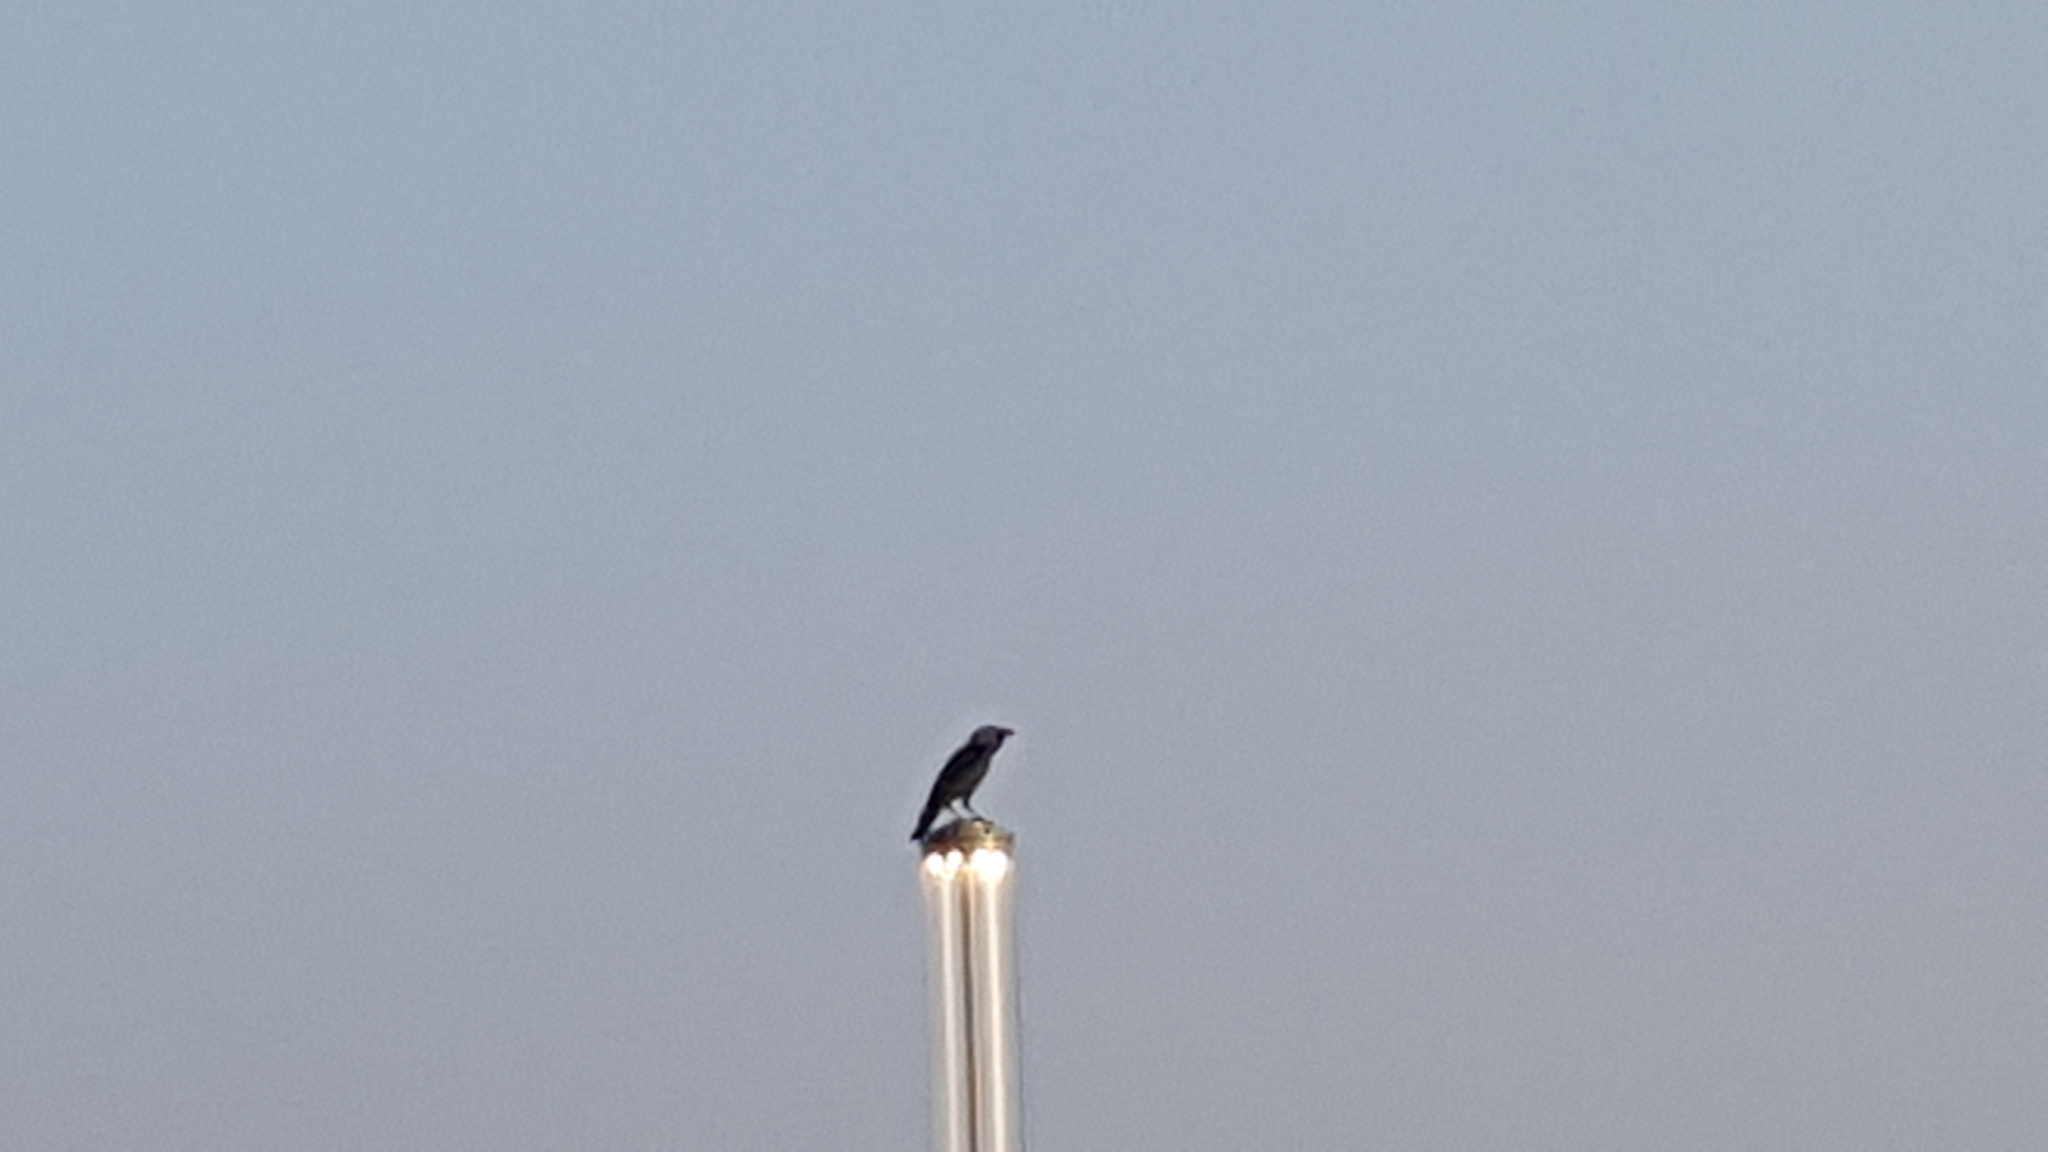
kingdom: Animalia
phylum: Chordata
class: Aves
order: Passeriformes
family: Corvidae
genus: Corvus
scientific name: Corvus splendens
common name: House crow
